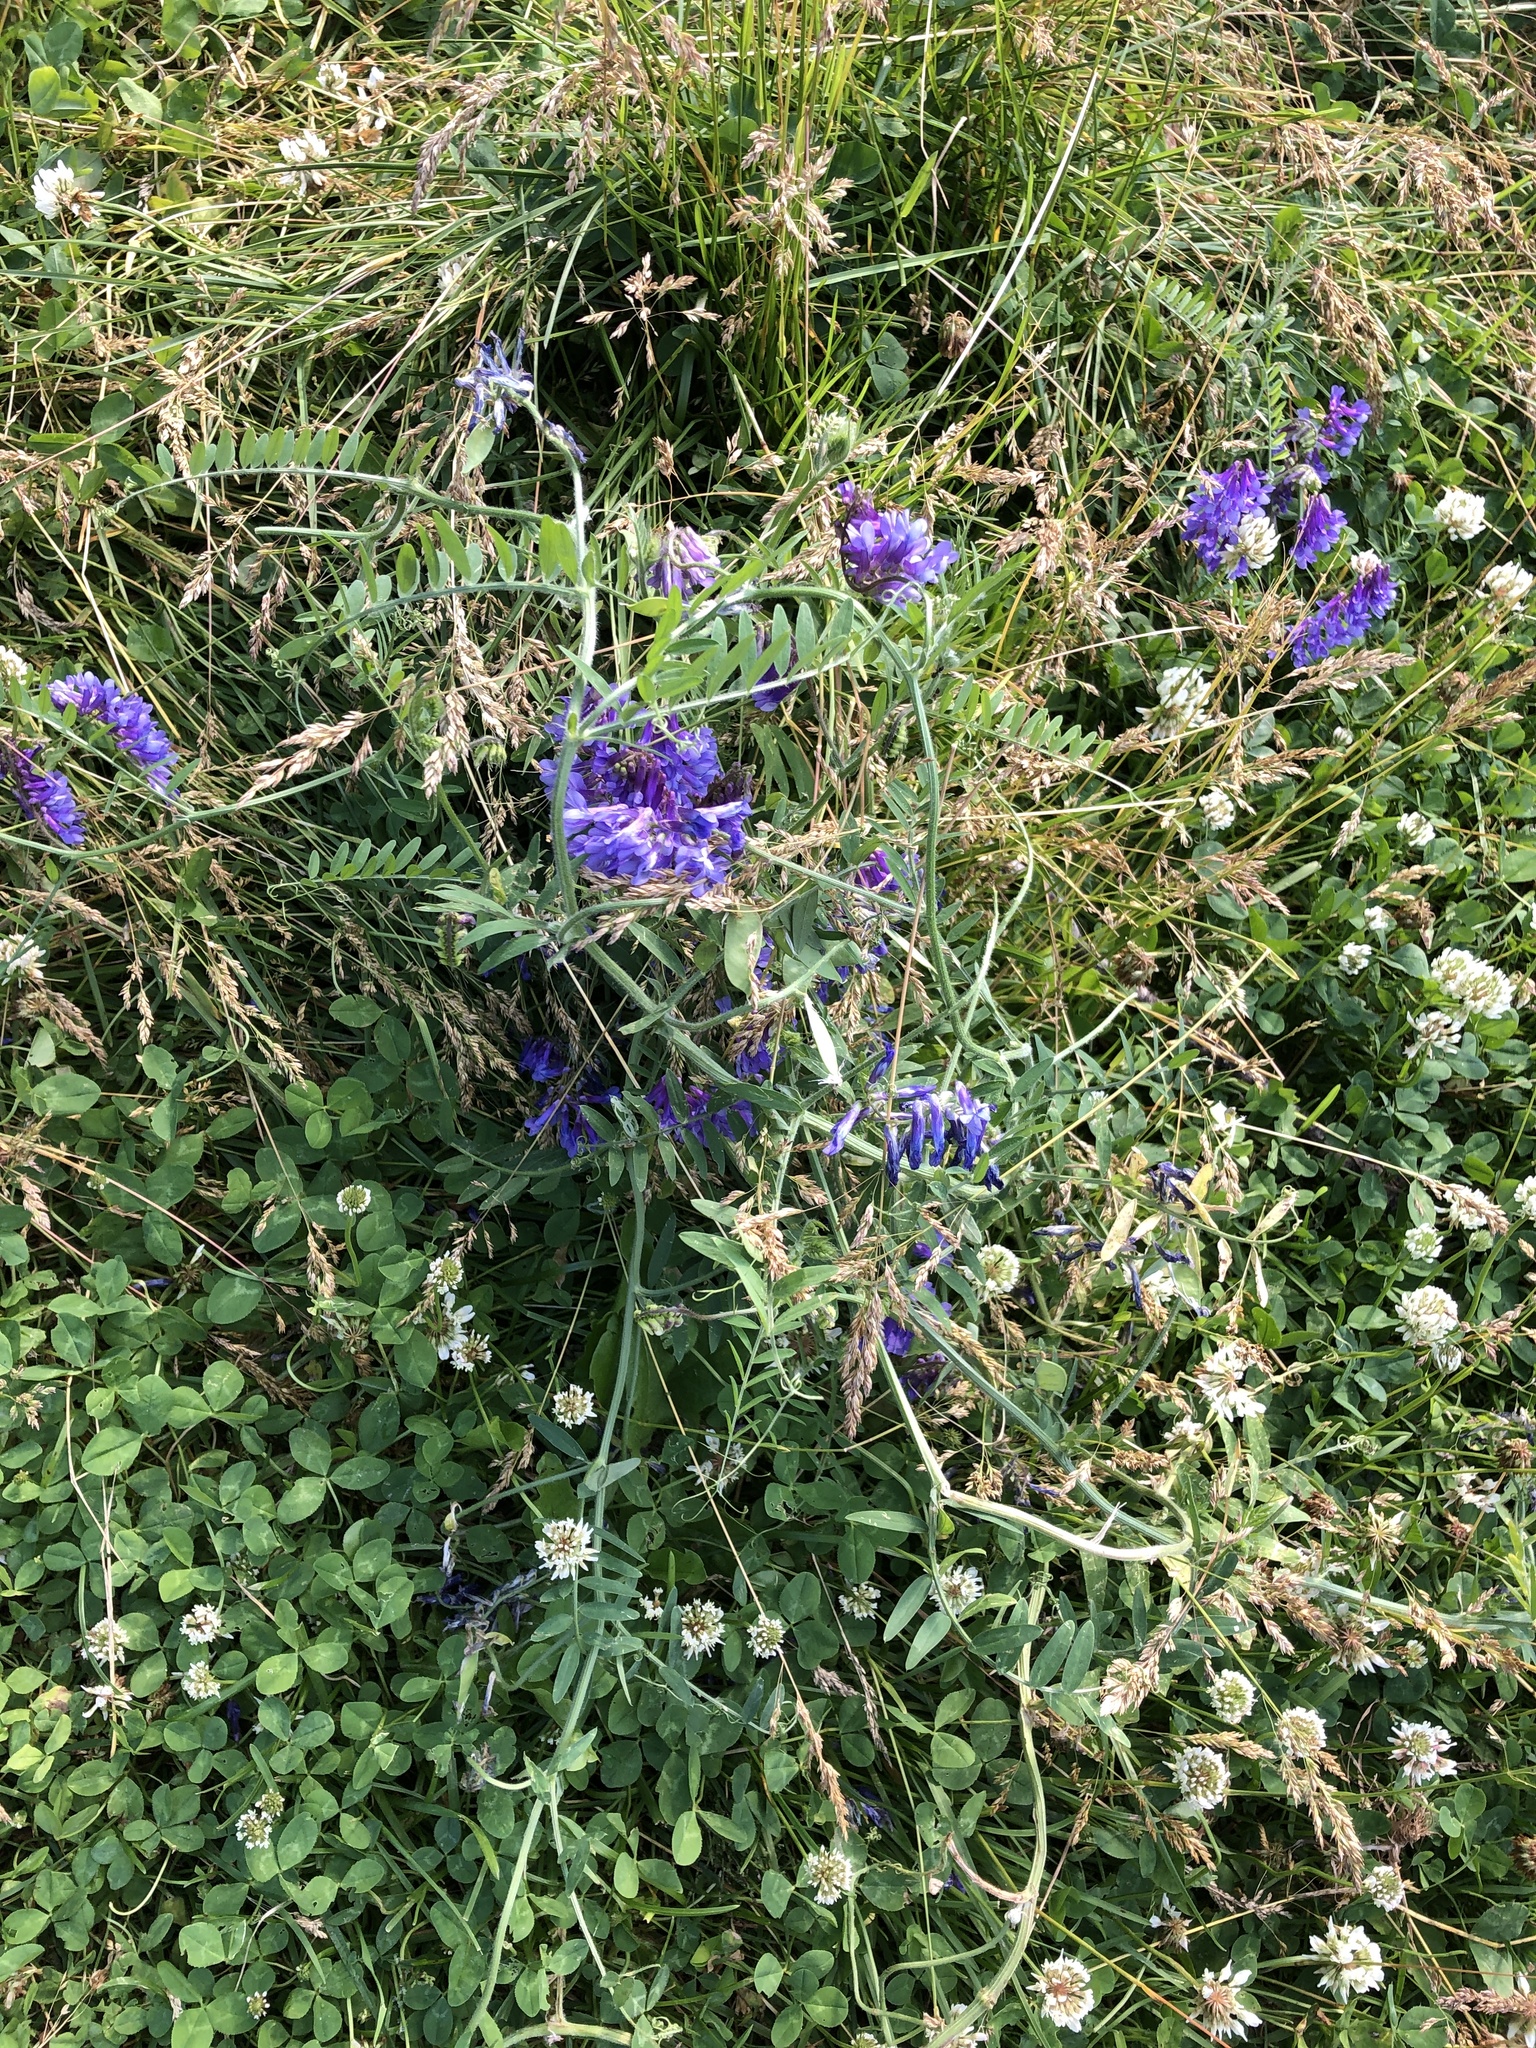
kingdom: Plantae
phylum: Tracheophyta
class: Magnoliopsida
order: Fabales
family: Fabaceae
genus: Vicia
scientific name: Vicia cracca
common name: Bird vetch
